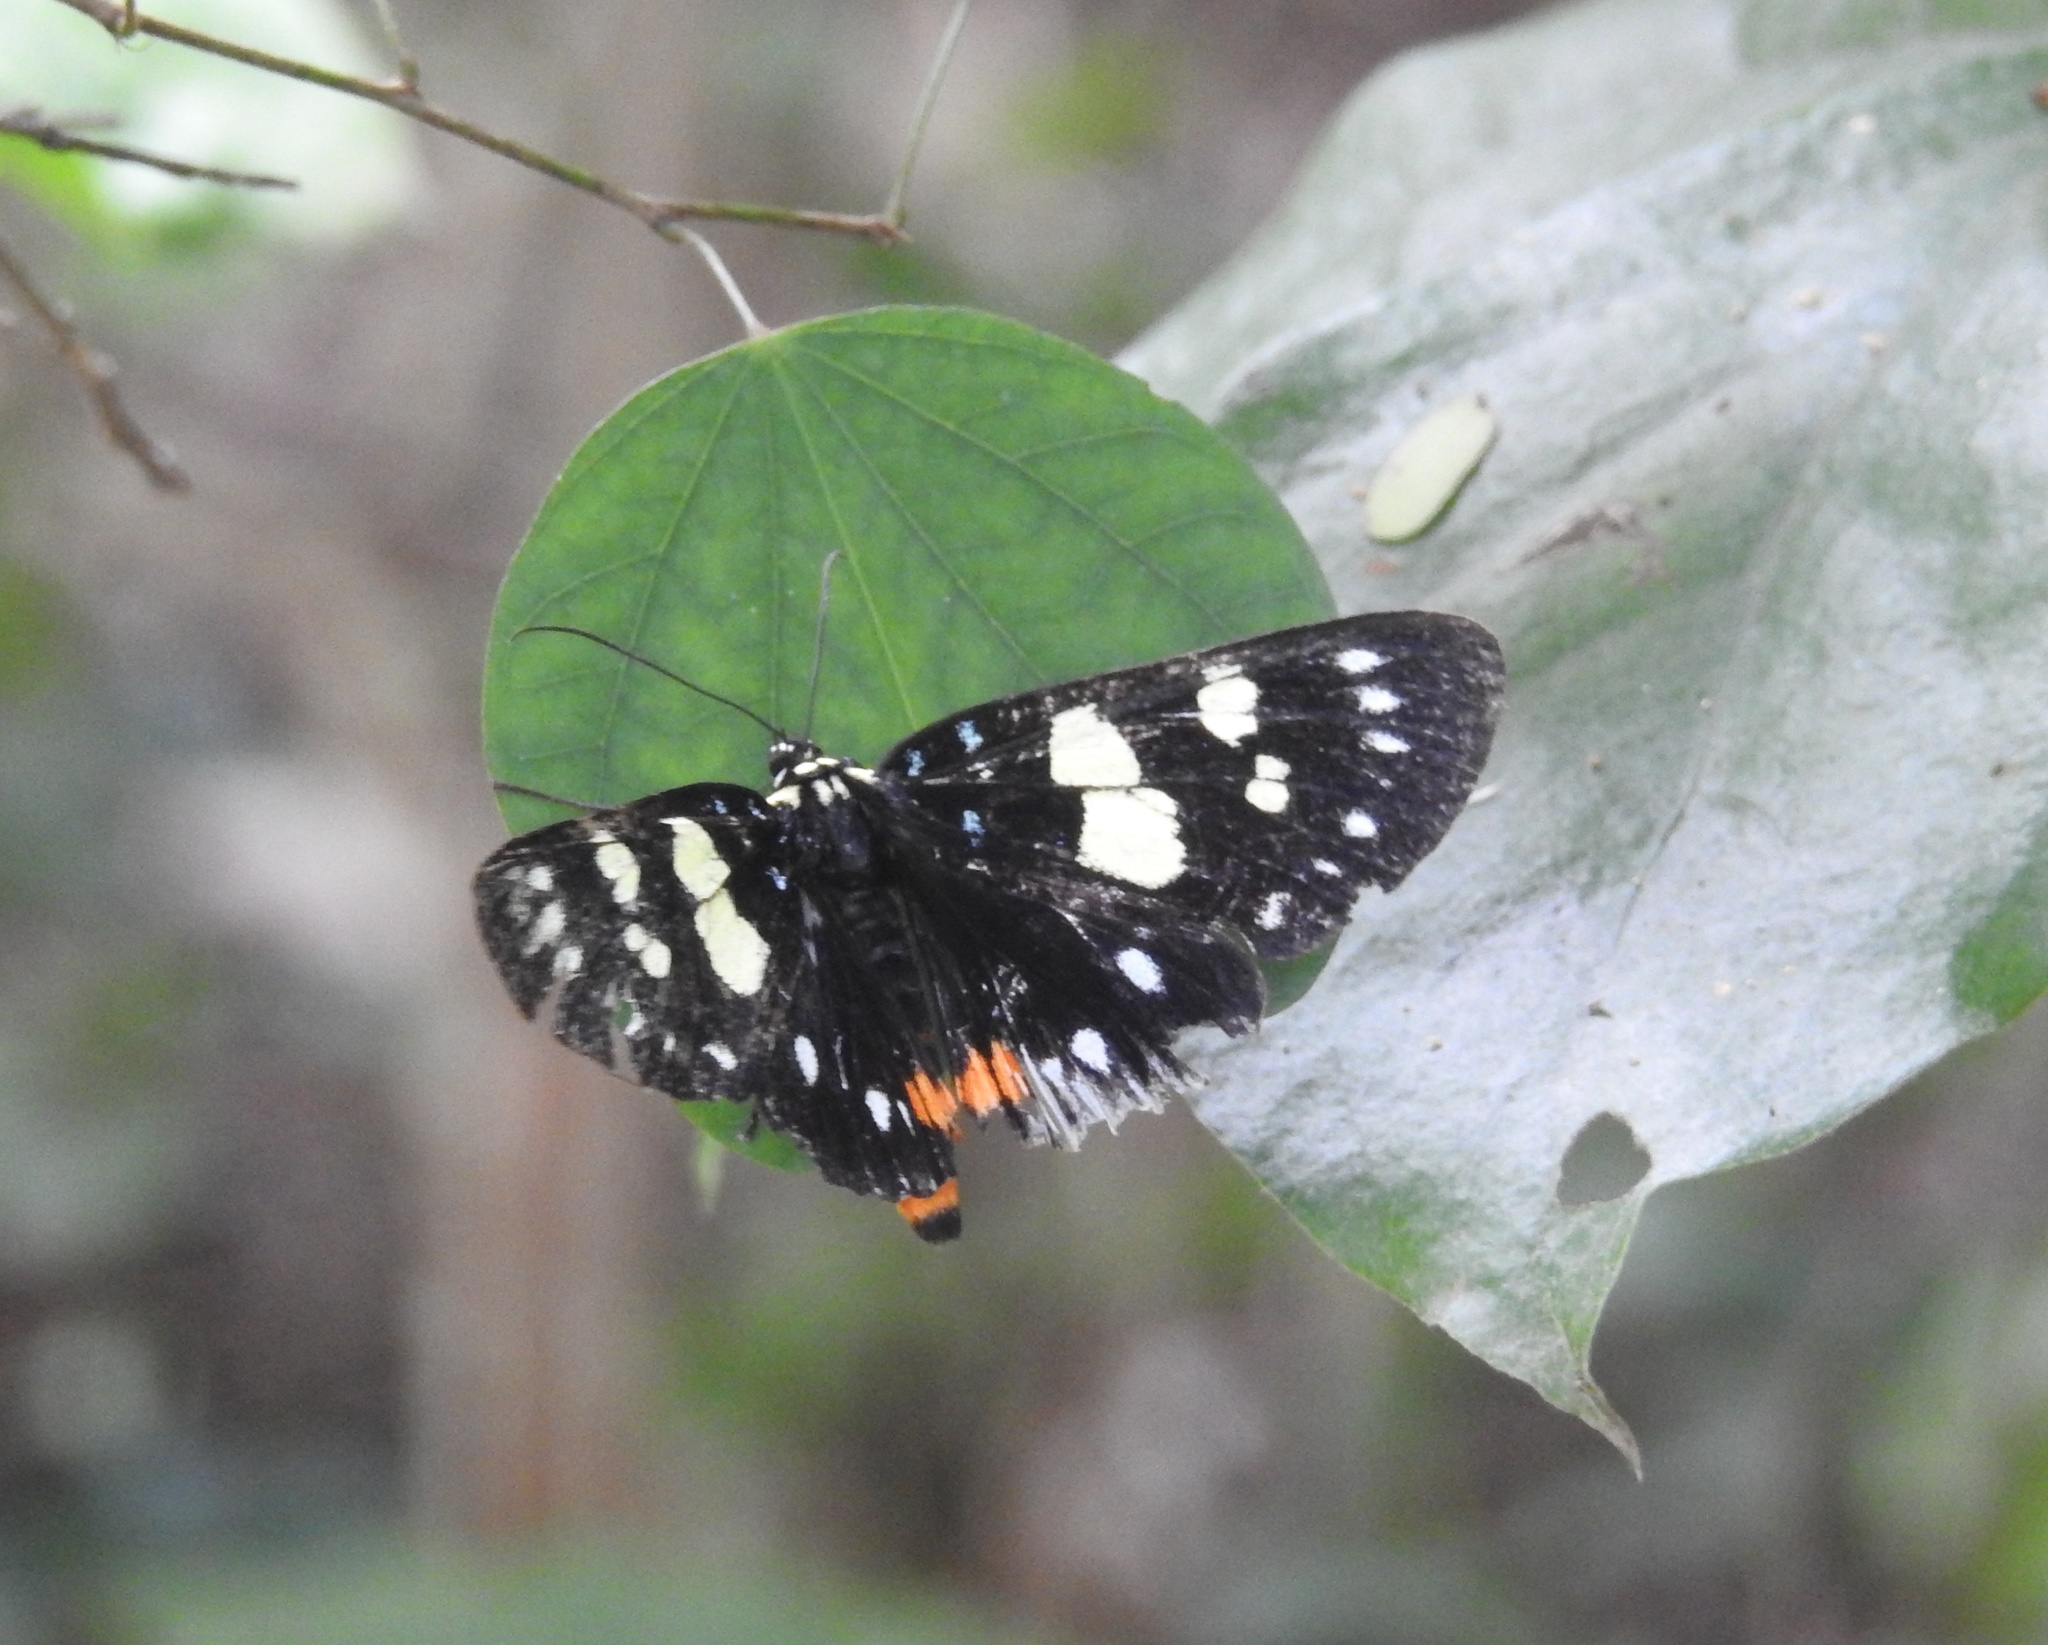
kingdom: Animalia
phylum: Arthropoda
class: Insecta
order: Lepidoptera
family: Noctuidae
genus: Episteme
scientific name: Episteme adulatrix
